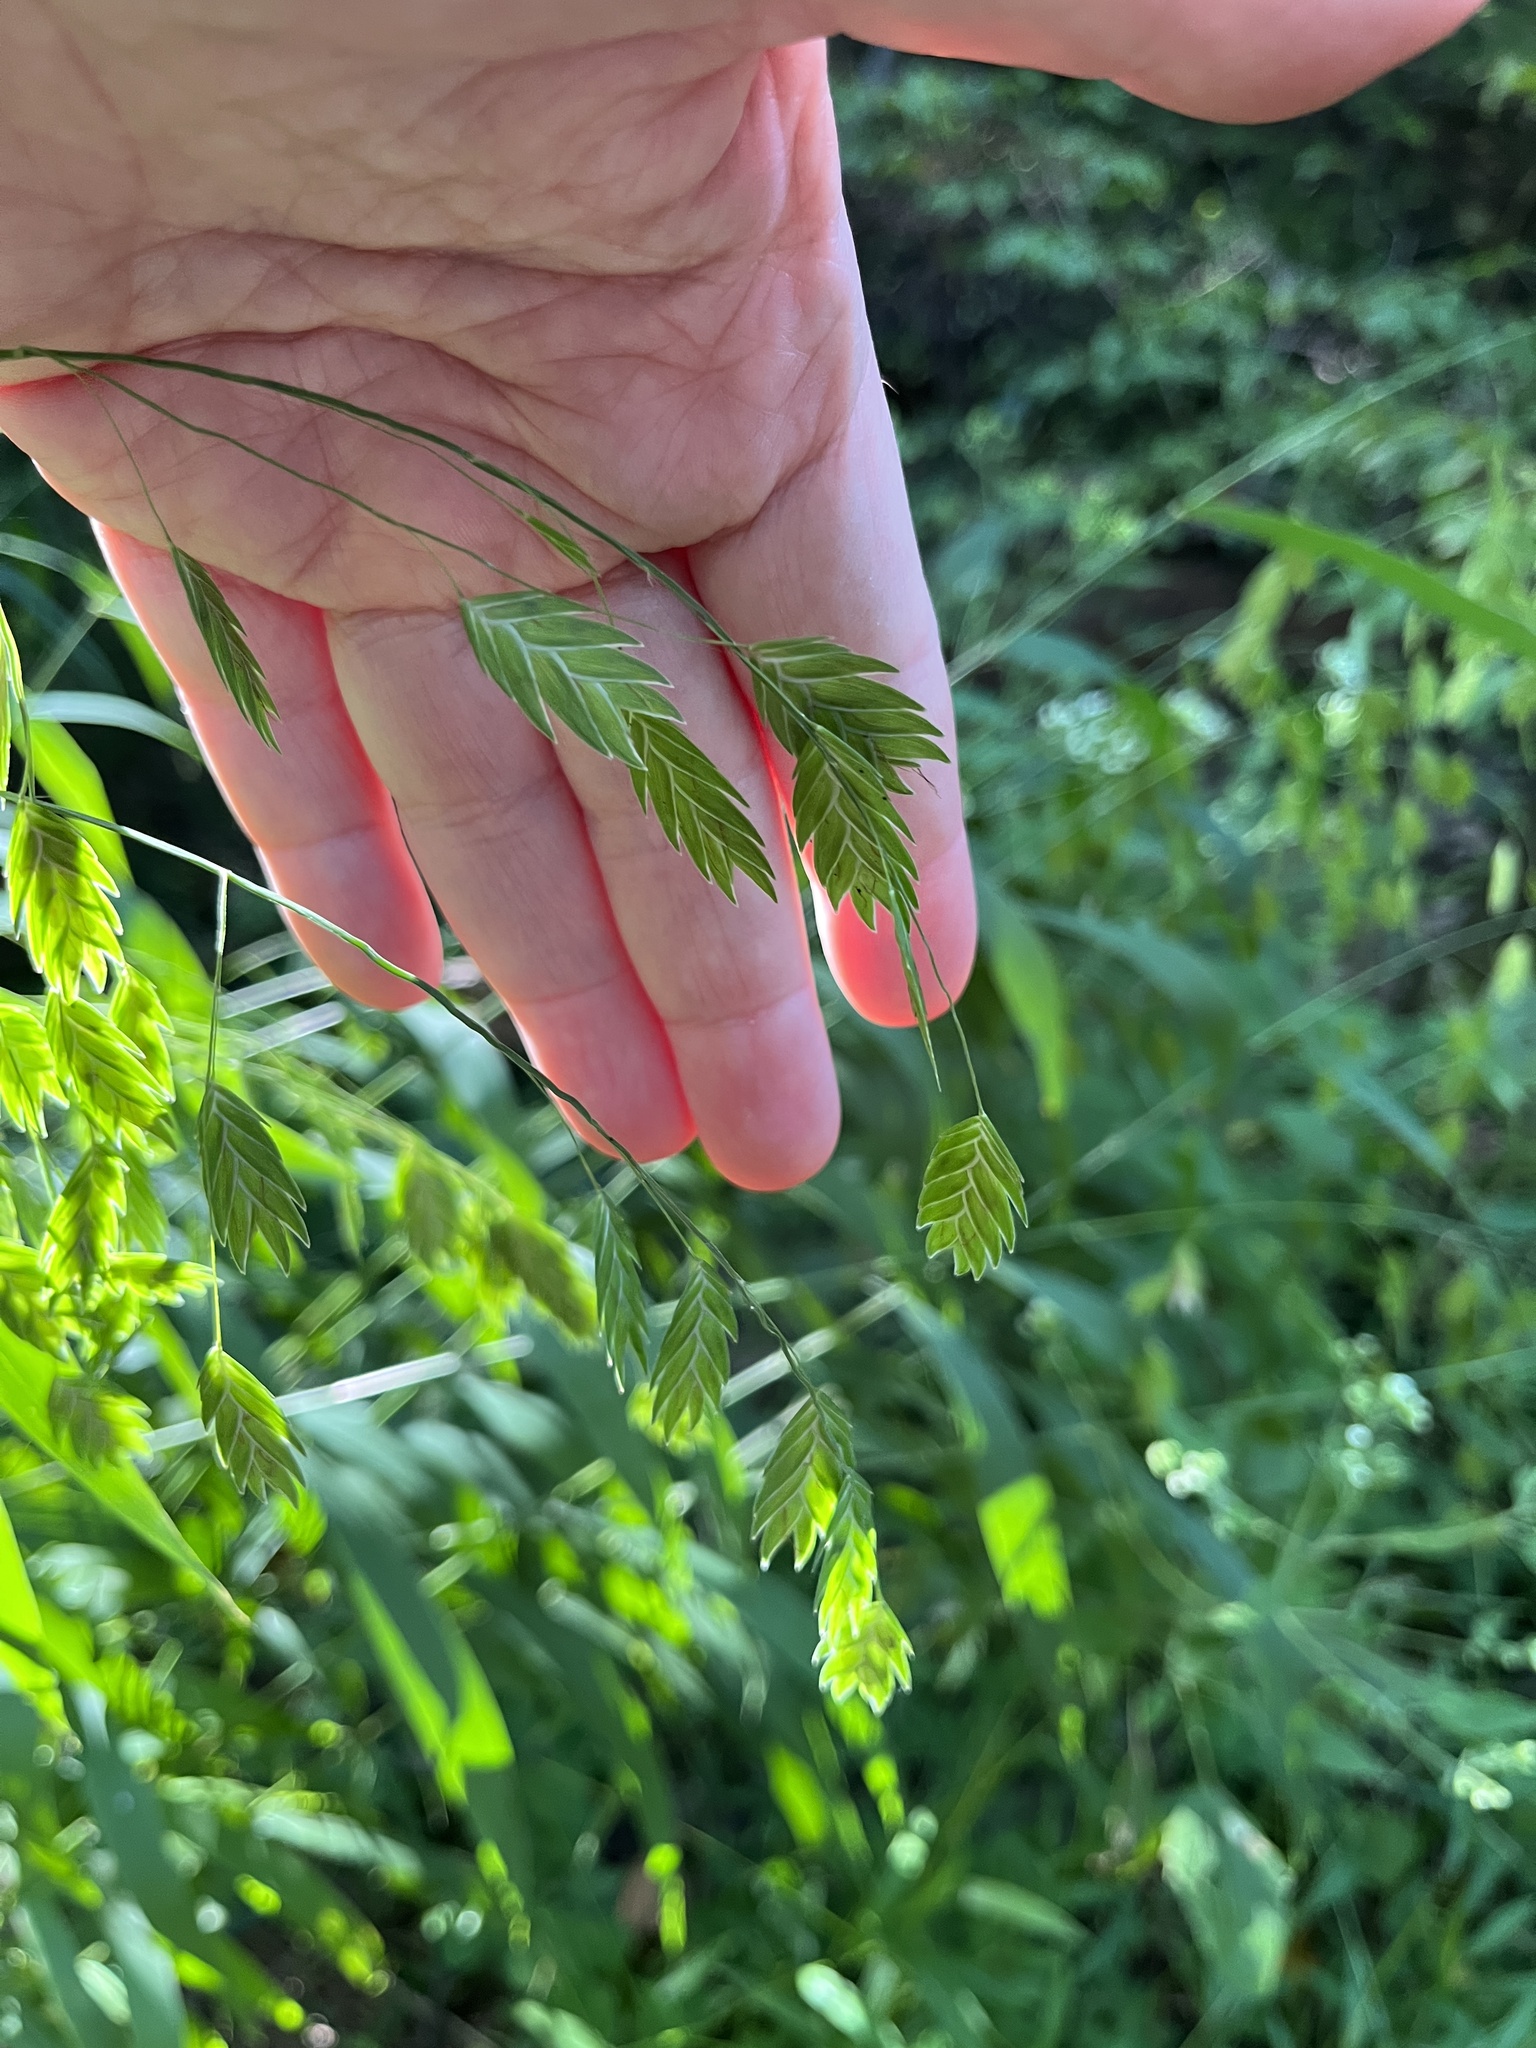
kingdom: Plantae
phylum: Tracheophyta
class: Liliopsida
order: Poales
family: Poaceae
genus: Chasmanthium
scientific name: Chasmanthium latifolium
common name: Broad-leaved chasmanthium
